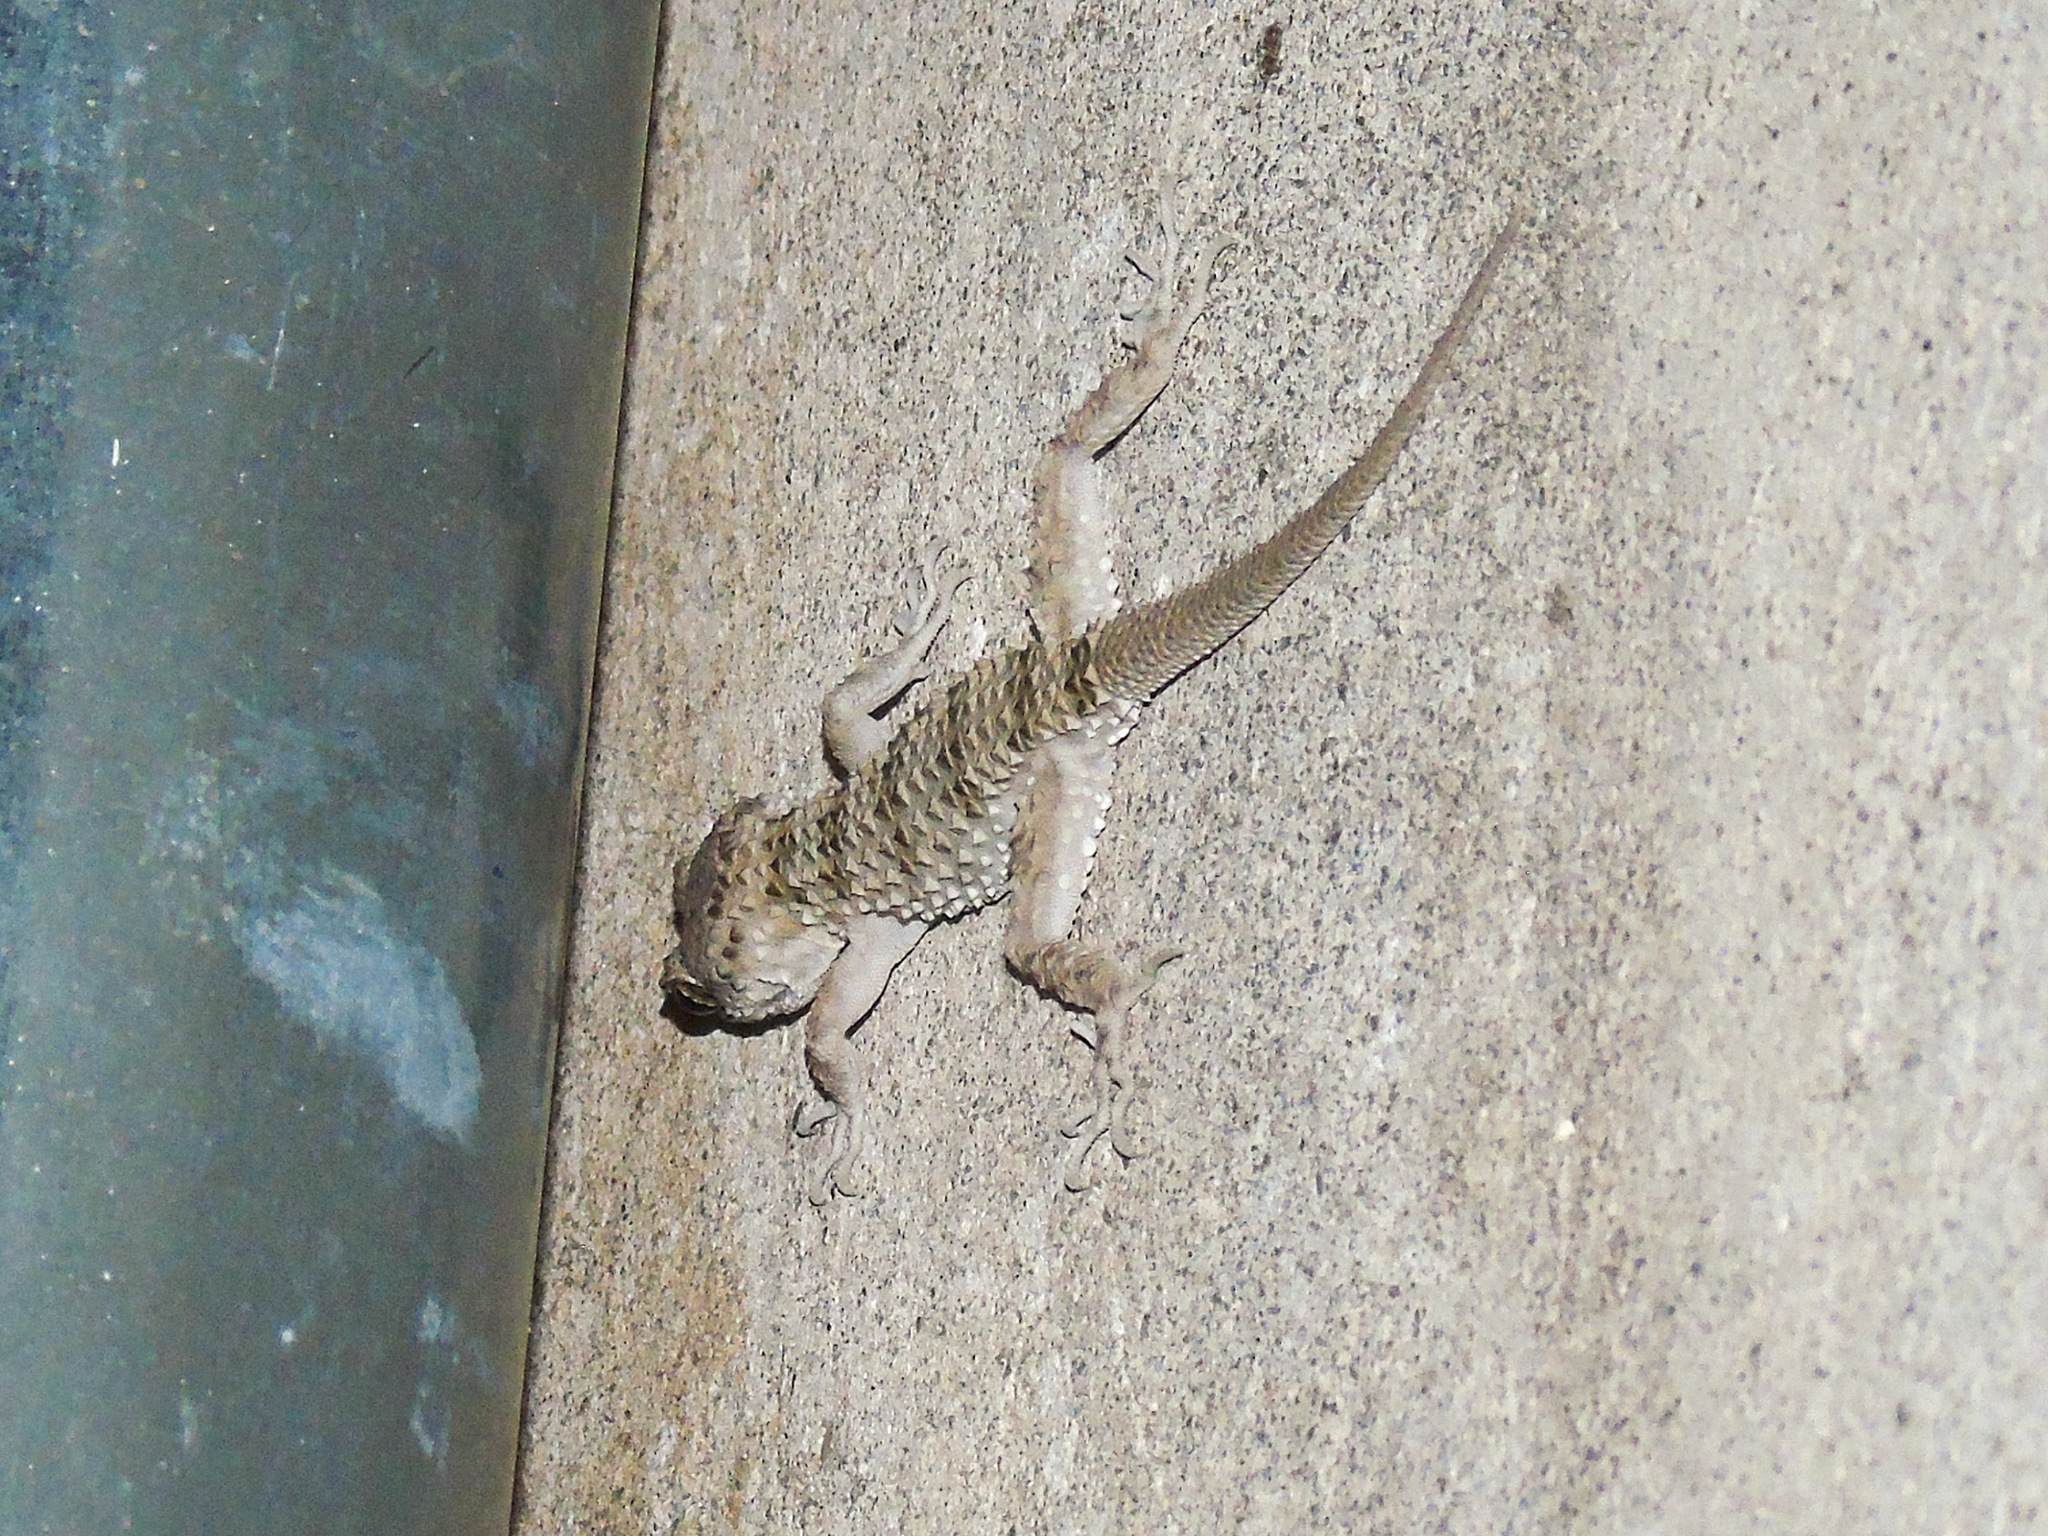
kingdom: Animalia
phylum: Chordata
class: Squamata
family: Gekkonidae
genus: Tenuidactylus
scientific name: Tenuidactylus caspius
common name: Caspian bent-toed gecko
